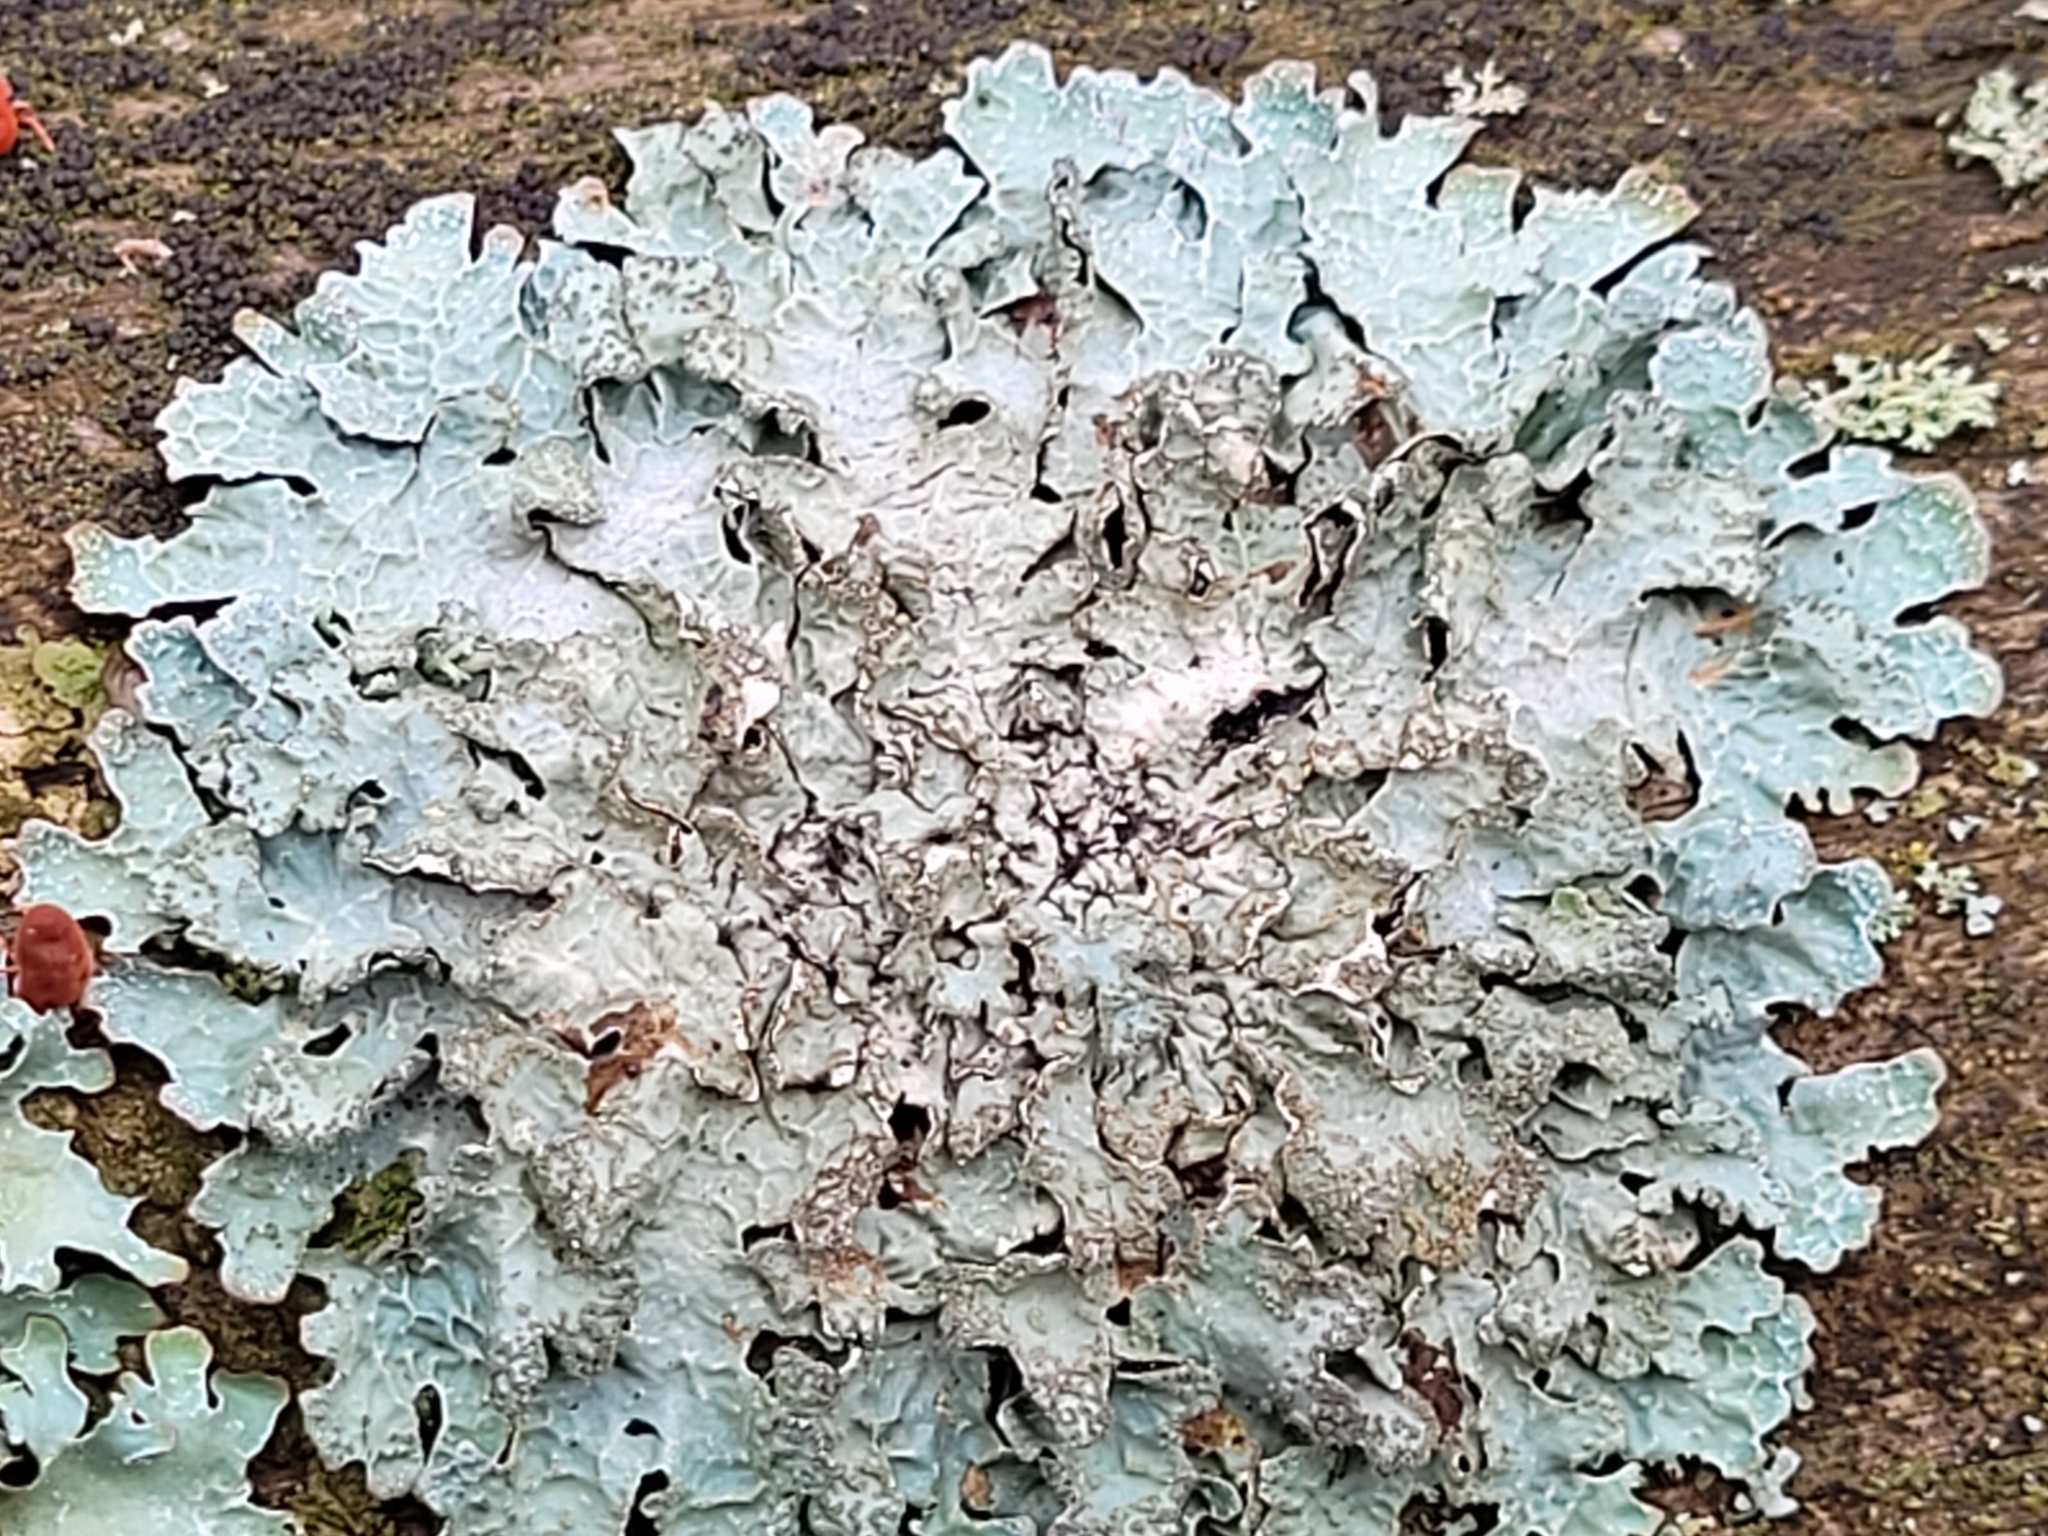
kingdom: Fungi
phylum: Ascomycota
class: Lecanoromycetes
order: Lecanorales
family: Parmeliaceae
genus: Parmelia
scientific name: Parmelia sulcata
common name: Netted shield lichen
